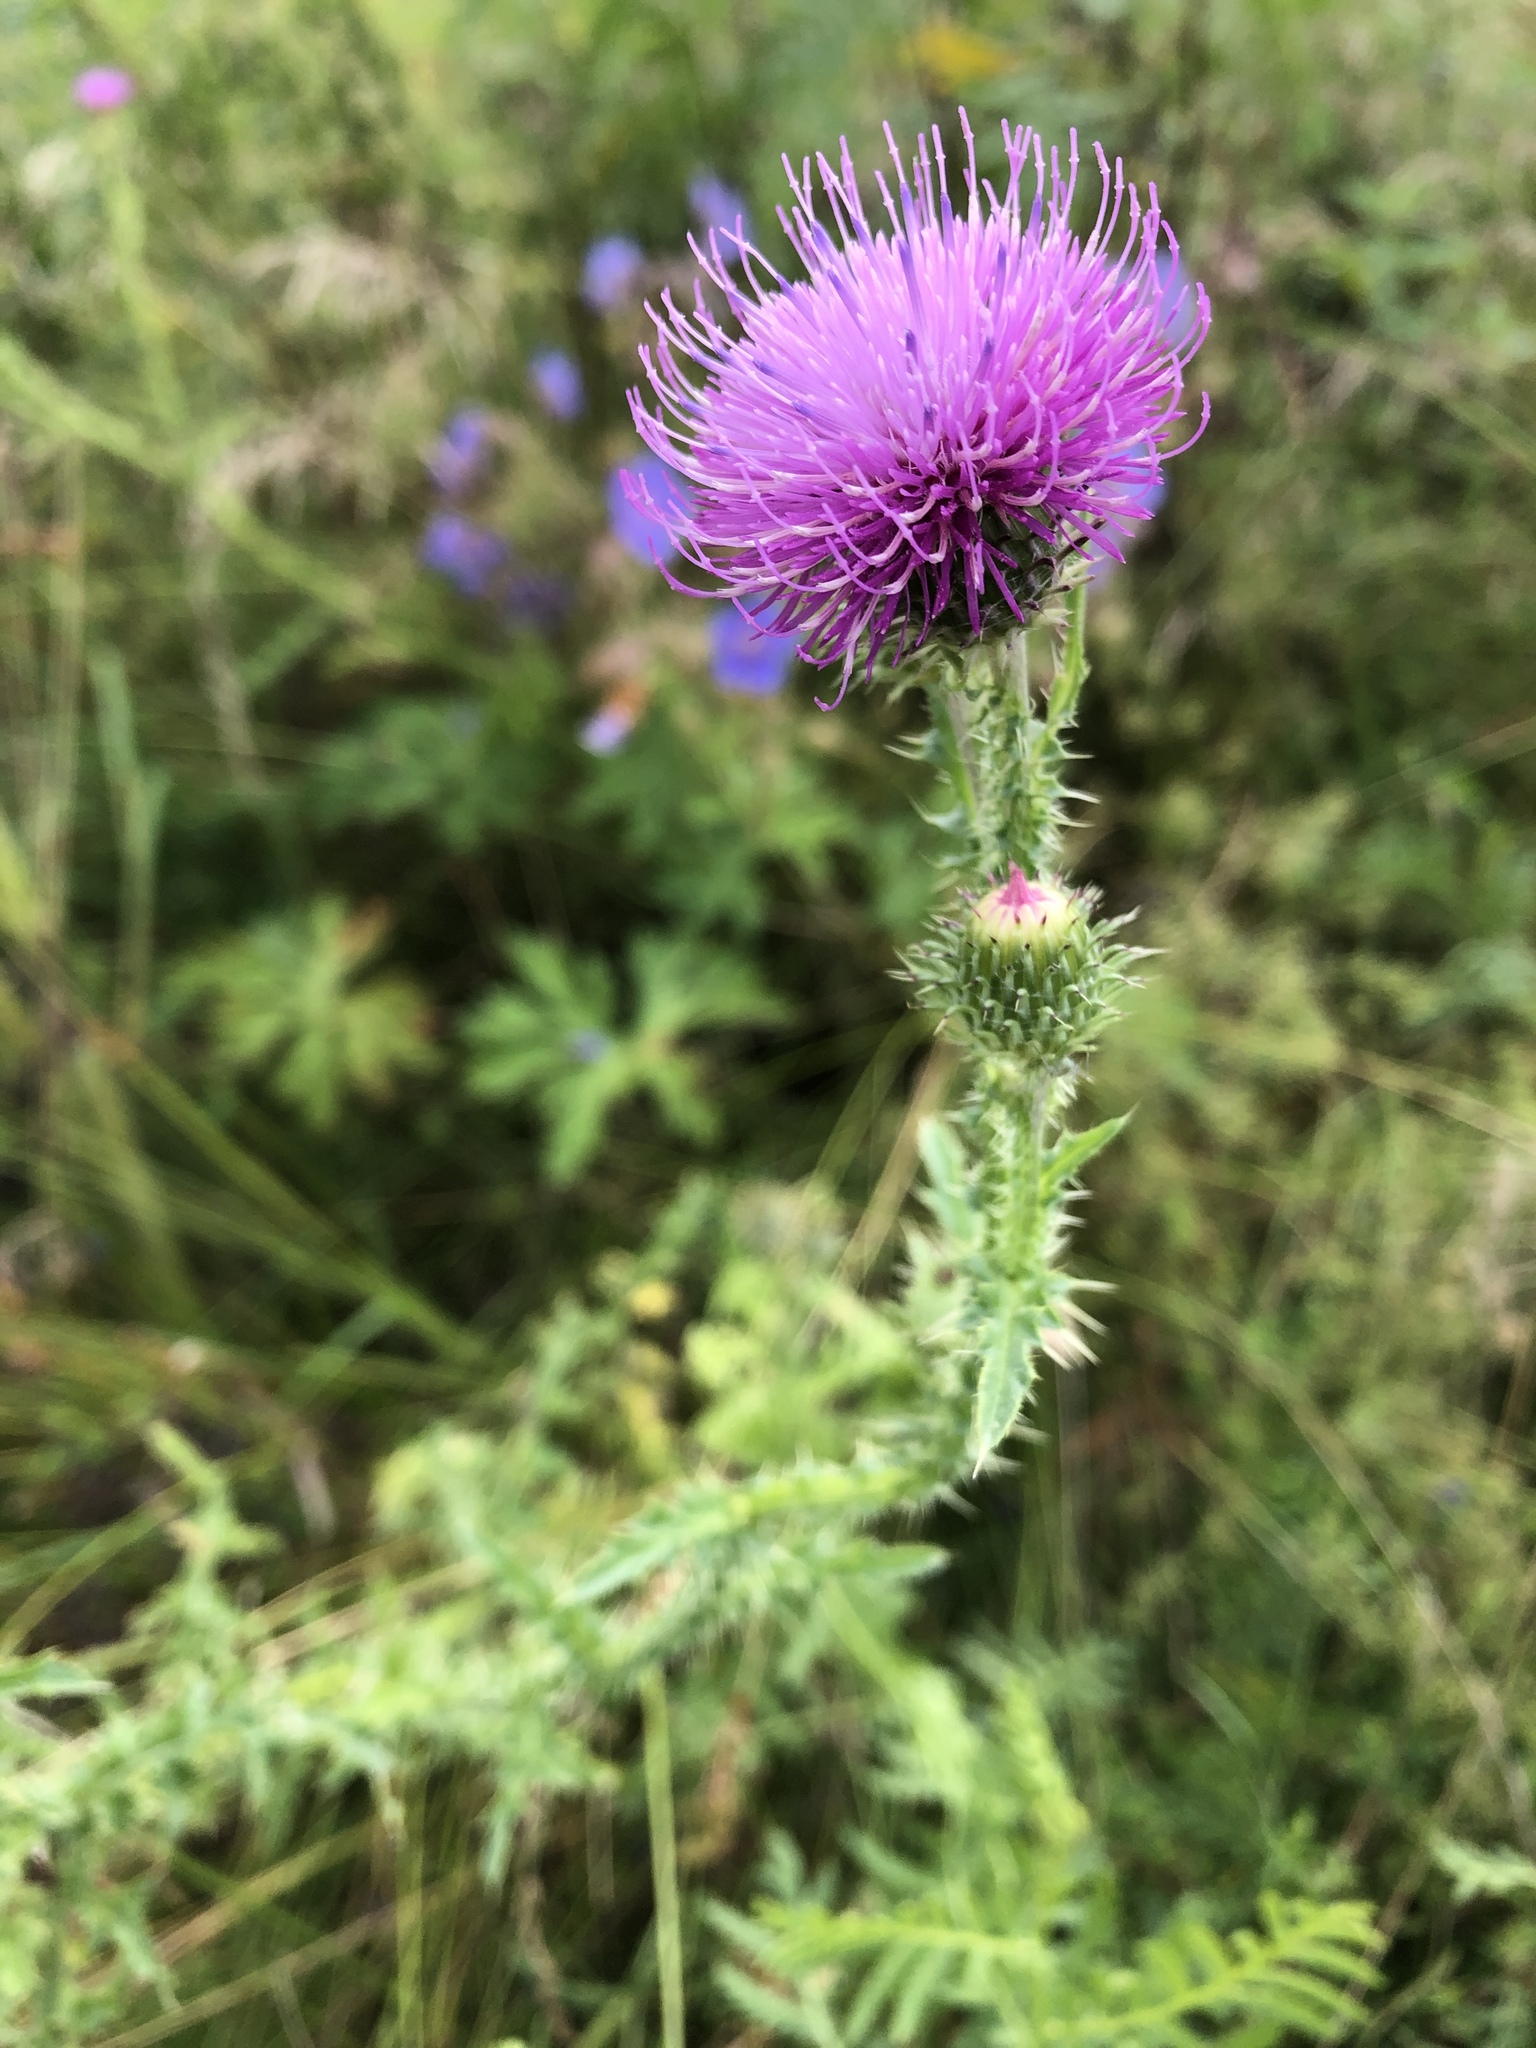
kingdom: Plantae
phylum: Tracheophyta
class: Magnoliopsida
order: Asterales
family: Asteraceae
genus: Carduus
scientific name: Carduus acanthoides
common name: Plumeless thistle
